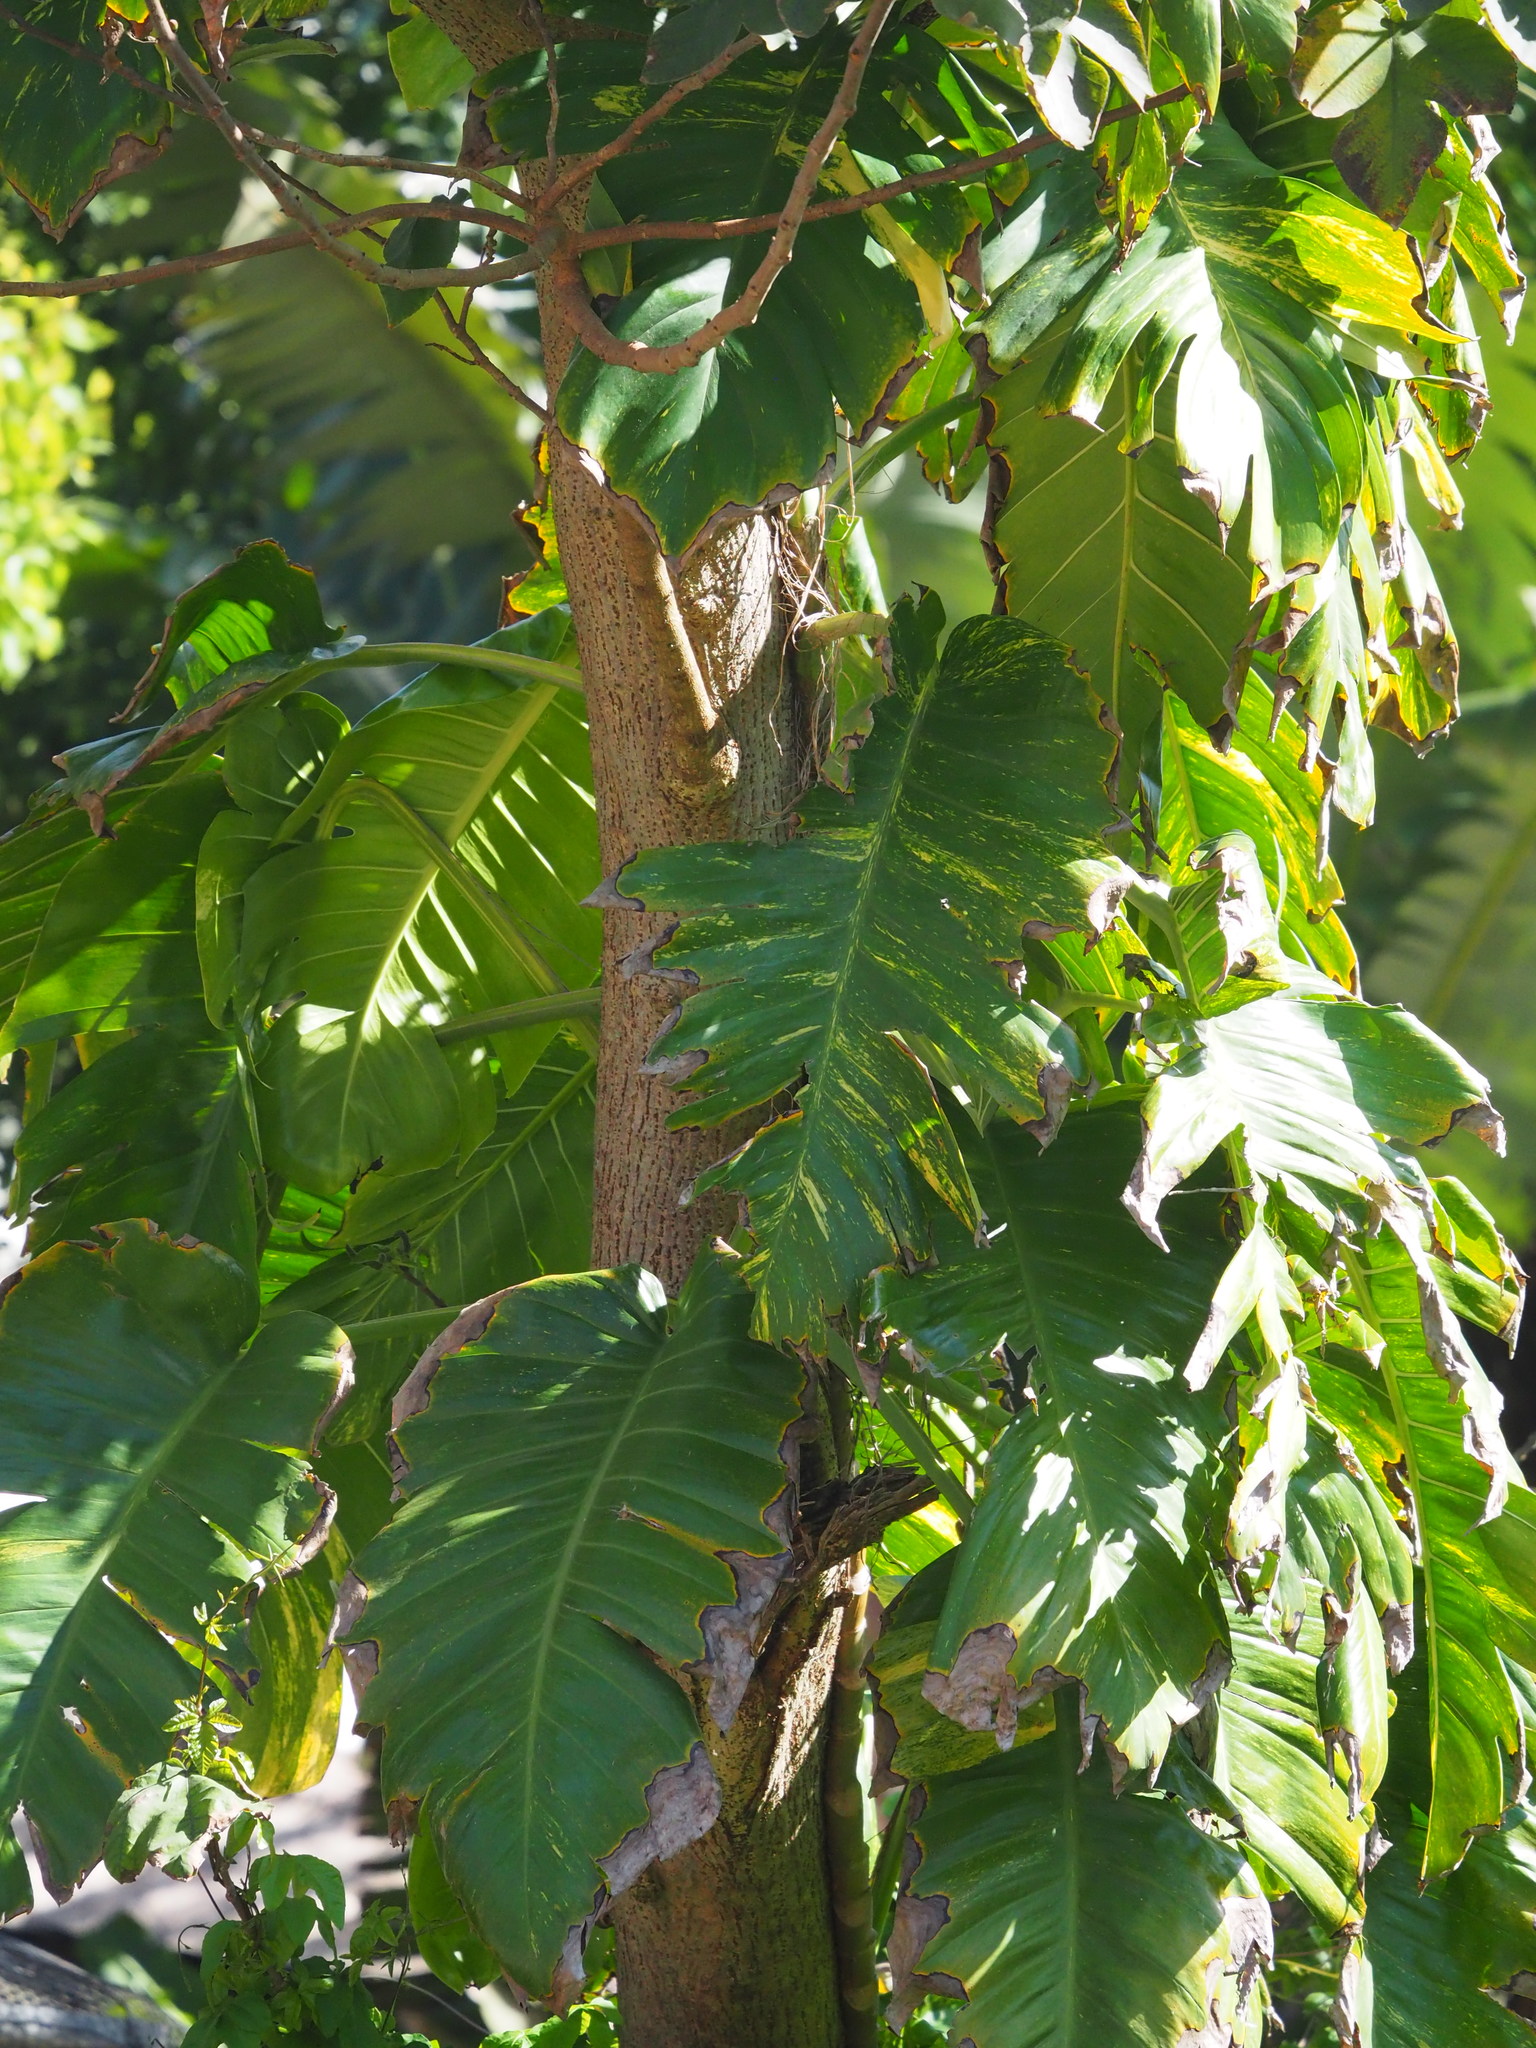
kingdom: Plantae
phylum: Tracheophyta
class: Liliopsida
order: Alismatales
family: Araceae
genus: Epipremnum
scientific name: Epipremnum aureum
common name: Golden hunter's-robe
